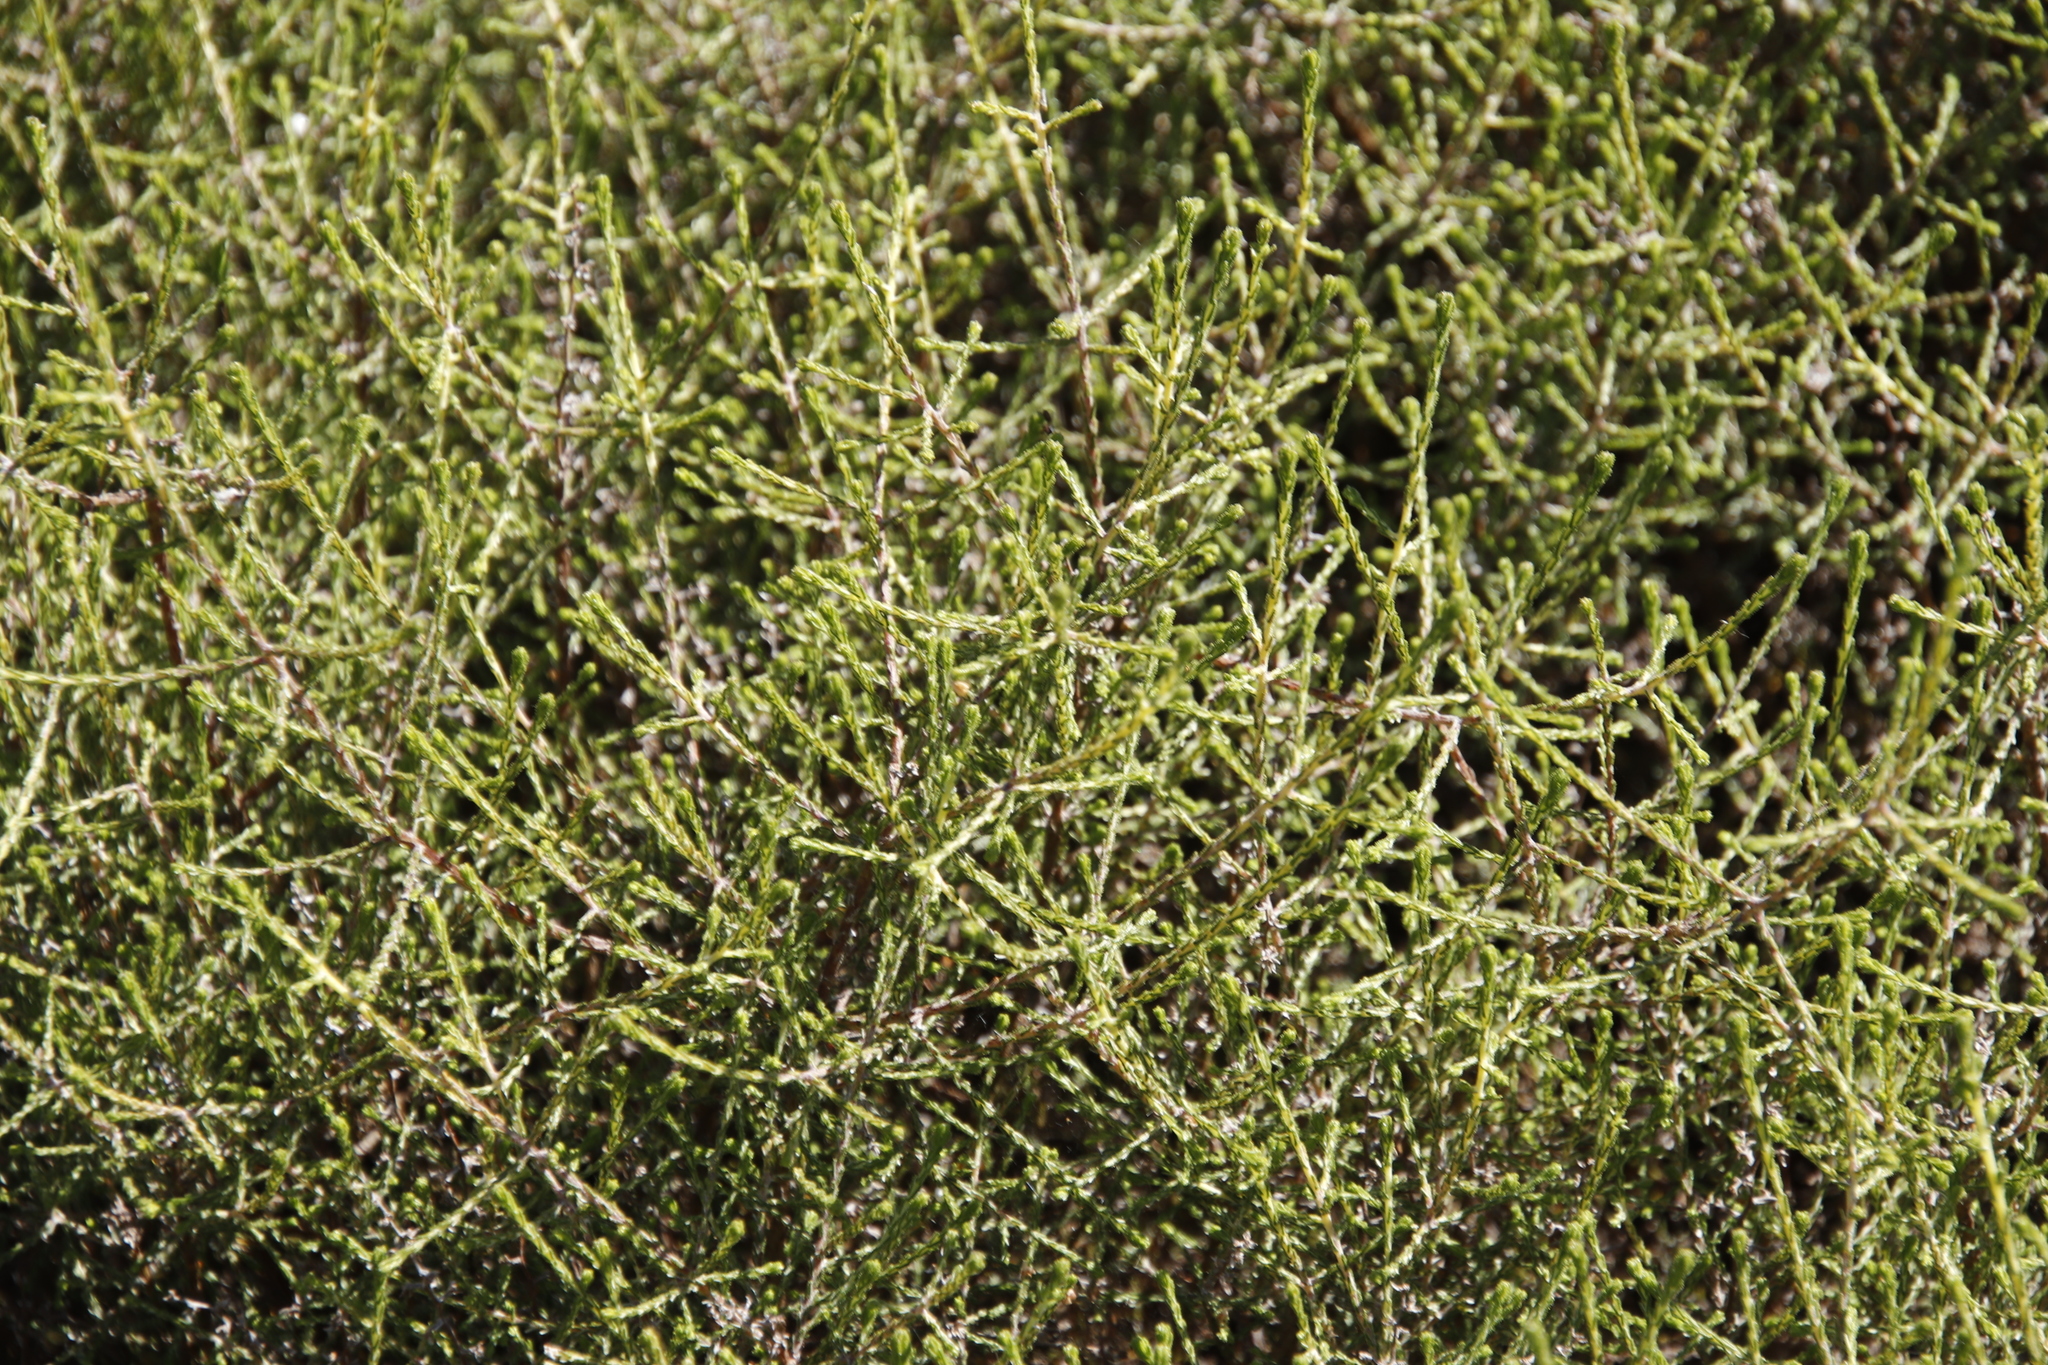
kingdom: Plantae
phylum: Tracheophyta
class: Magnoliopsida
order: Asterales
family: Asteraceae
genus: Myrovernix
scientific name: Myrovernix scaber
